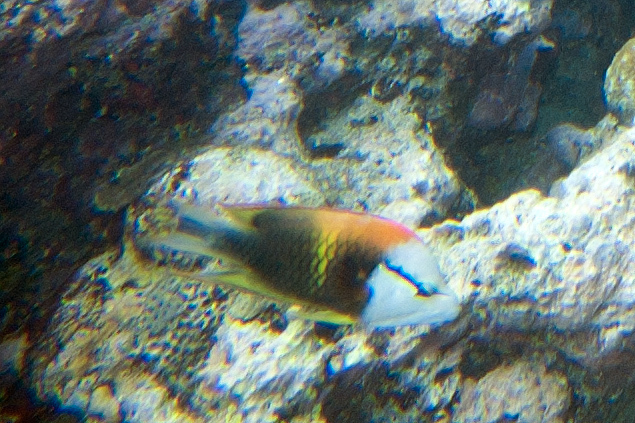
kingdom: Animalia
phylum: Chordata
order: Perciformes
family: Labridae
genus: Epibulus
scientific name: Epibulus insidiator
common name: Slingjaw wrasse
